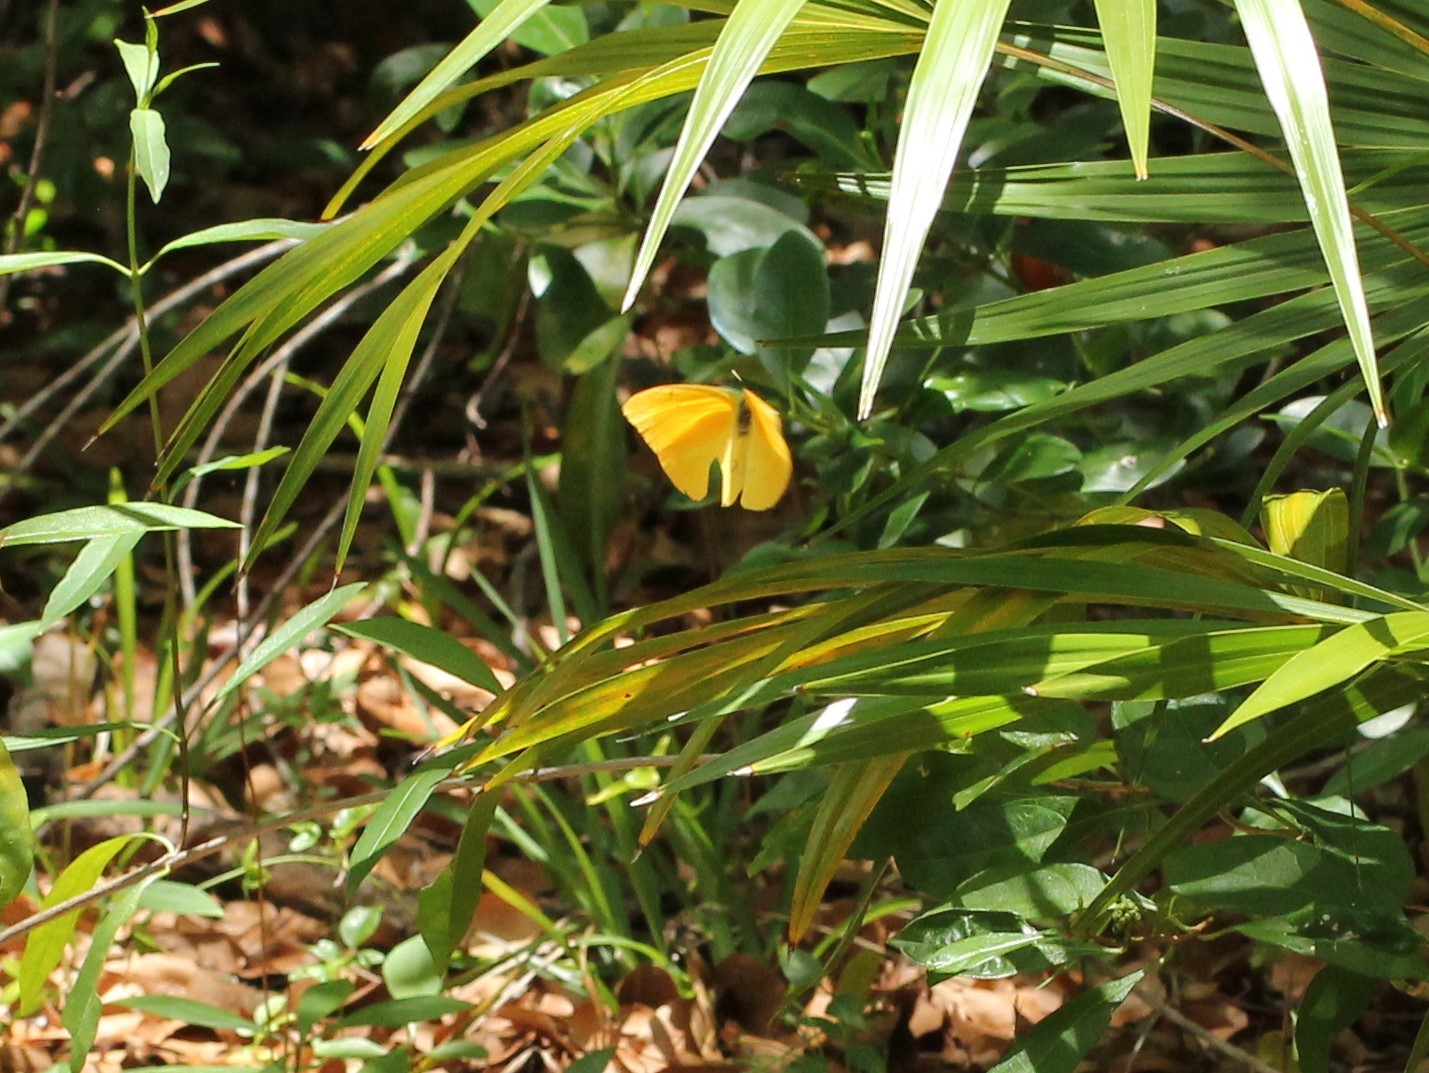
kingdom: Animalia
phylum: Arthropoda
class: Insecta
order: Lepidoptera
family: Pieridae
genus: Phoebis
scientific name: Phoebis agarithe
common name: Large orange sulphur
